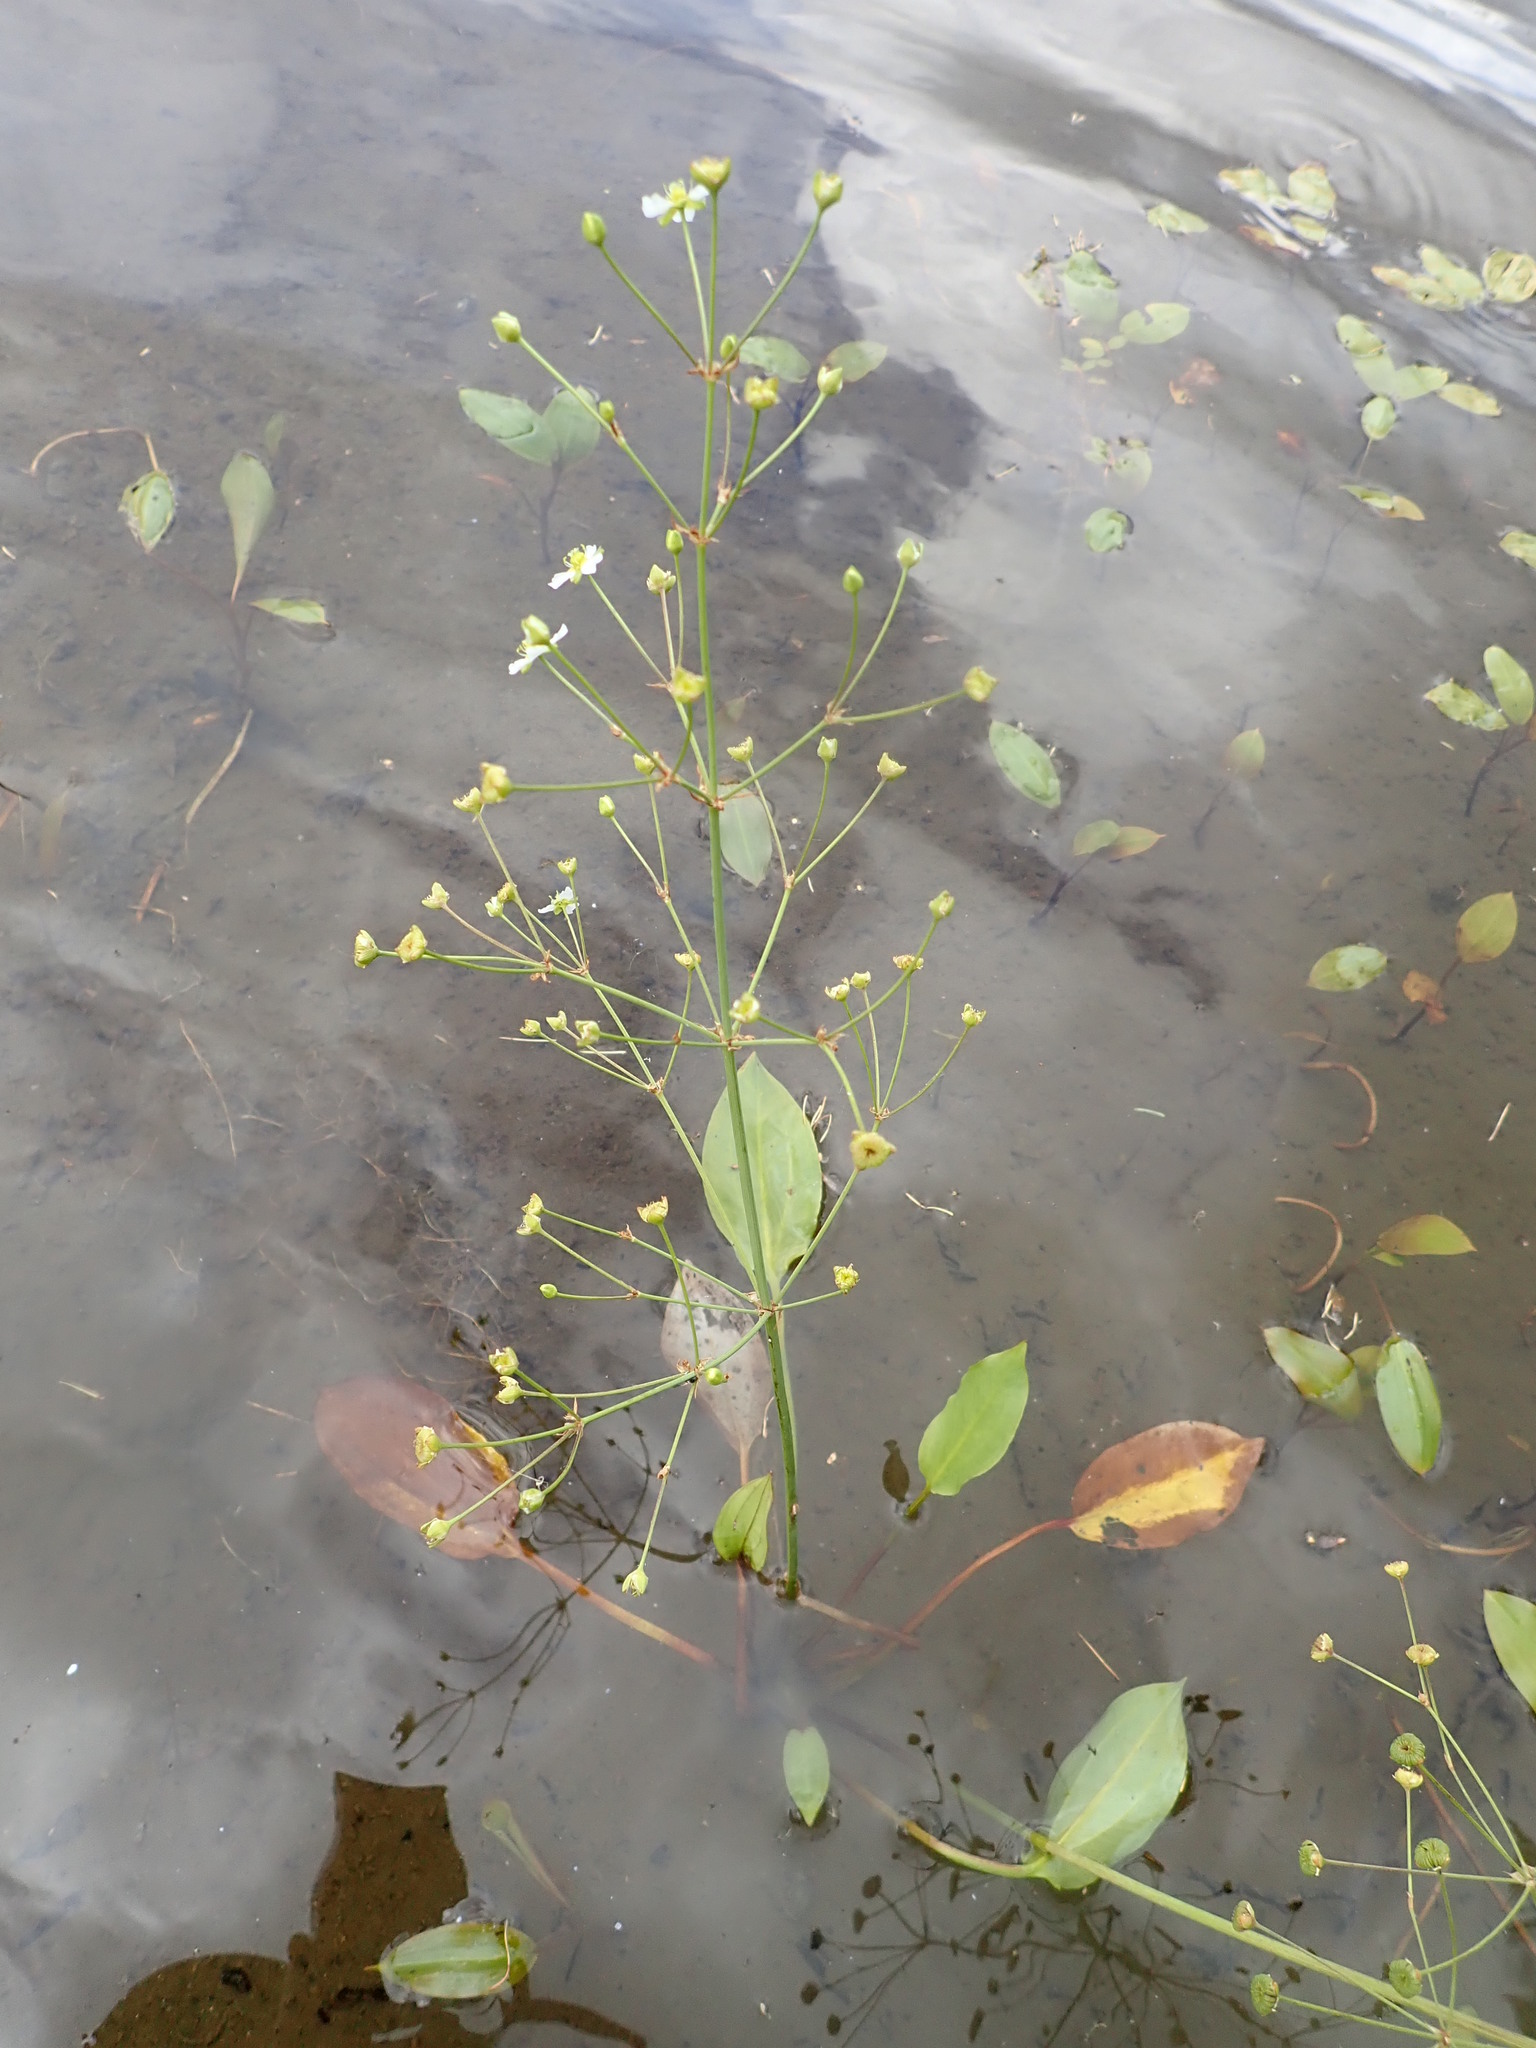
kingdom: Plantae
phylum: Tracheophyta
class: Liliopsida
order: Alismatales
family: Alismataceae
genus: Alisma
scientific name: Alisma triviale
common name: Northern water-plantain
